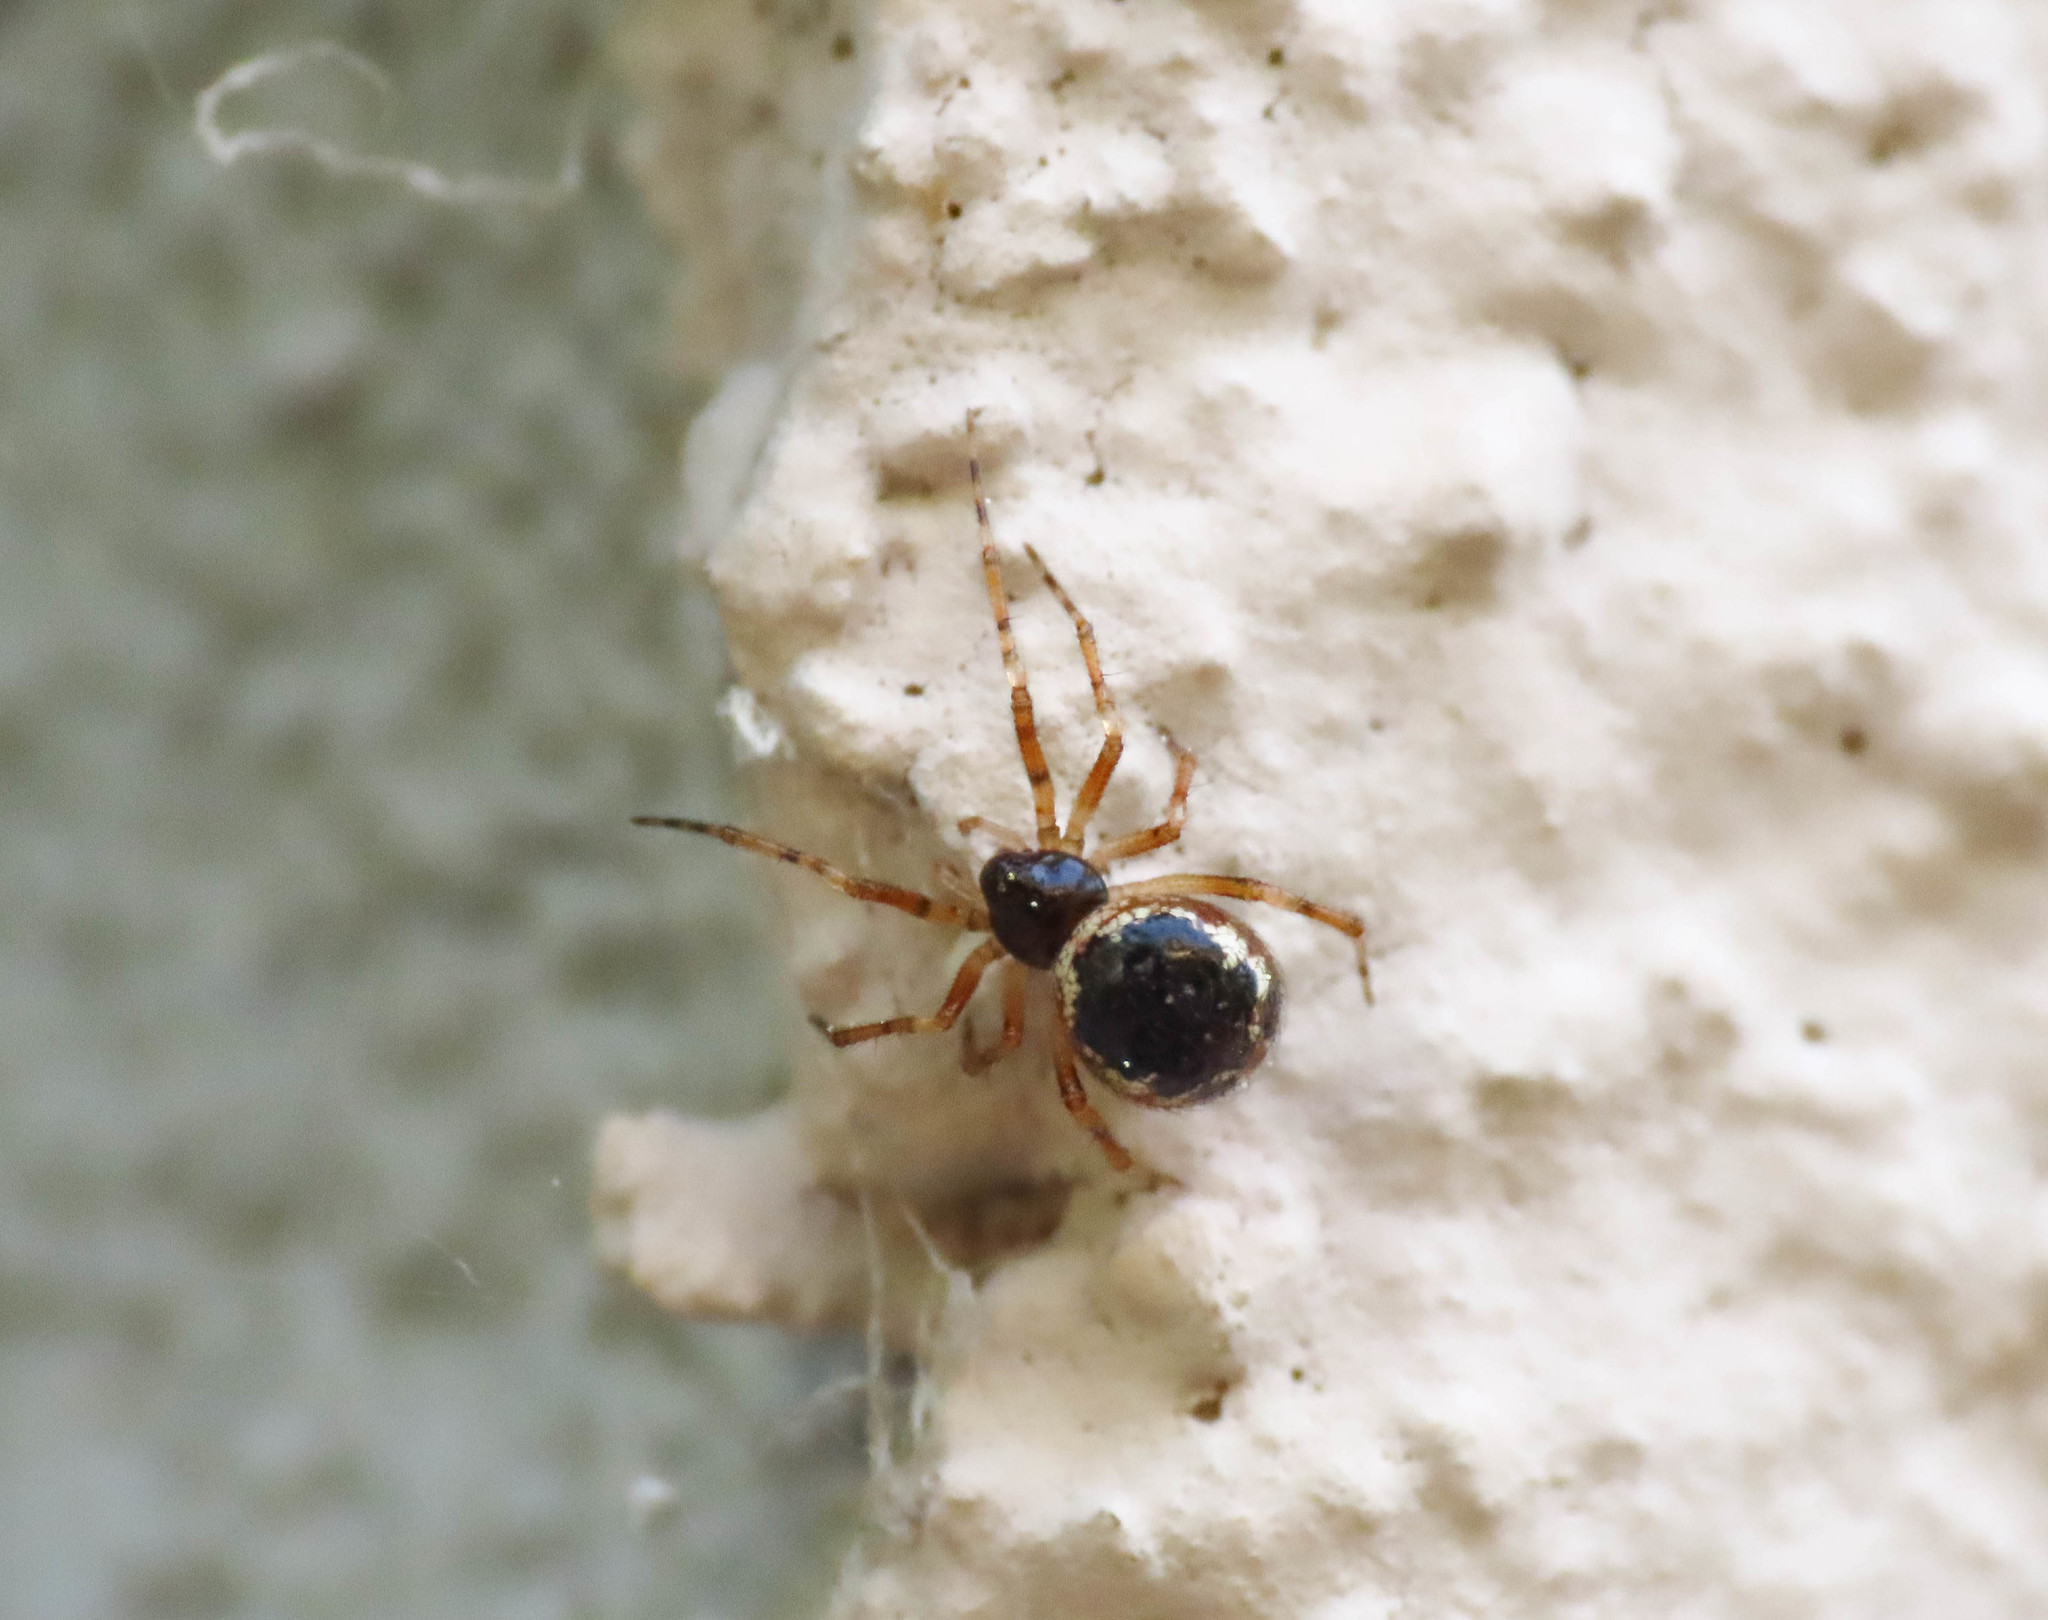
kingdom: Animalia
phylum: Arthropoda
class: Arachnida
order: Araneae
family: Theridiidae
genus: Sardinidion
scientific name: Sardinidion blackwalli
